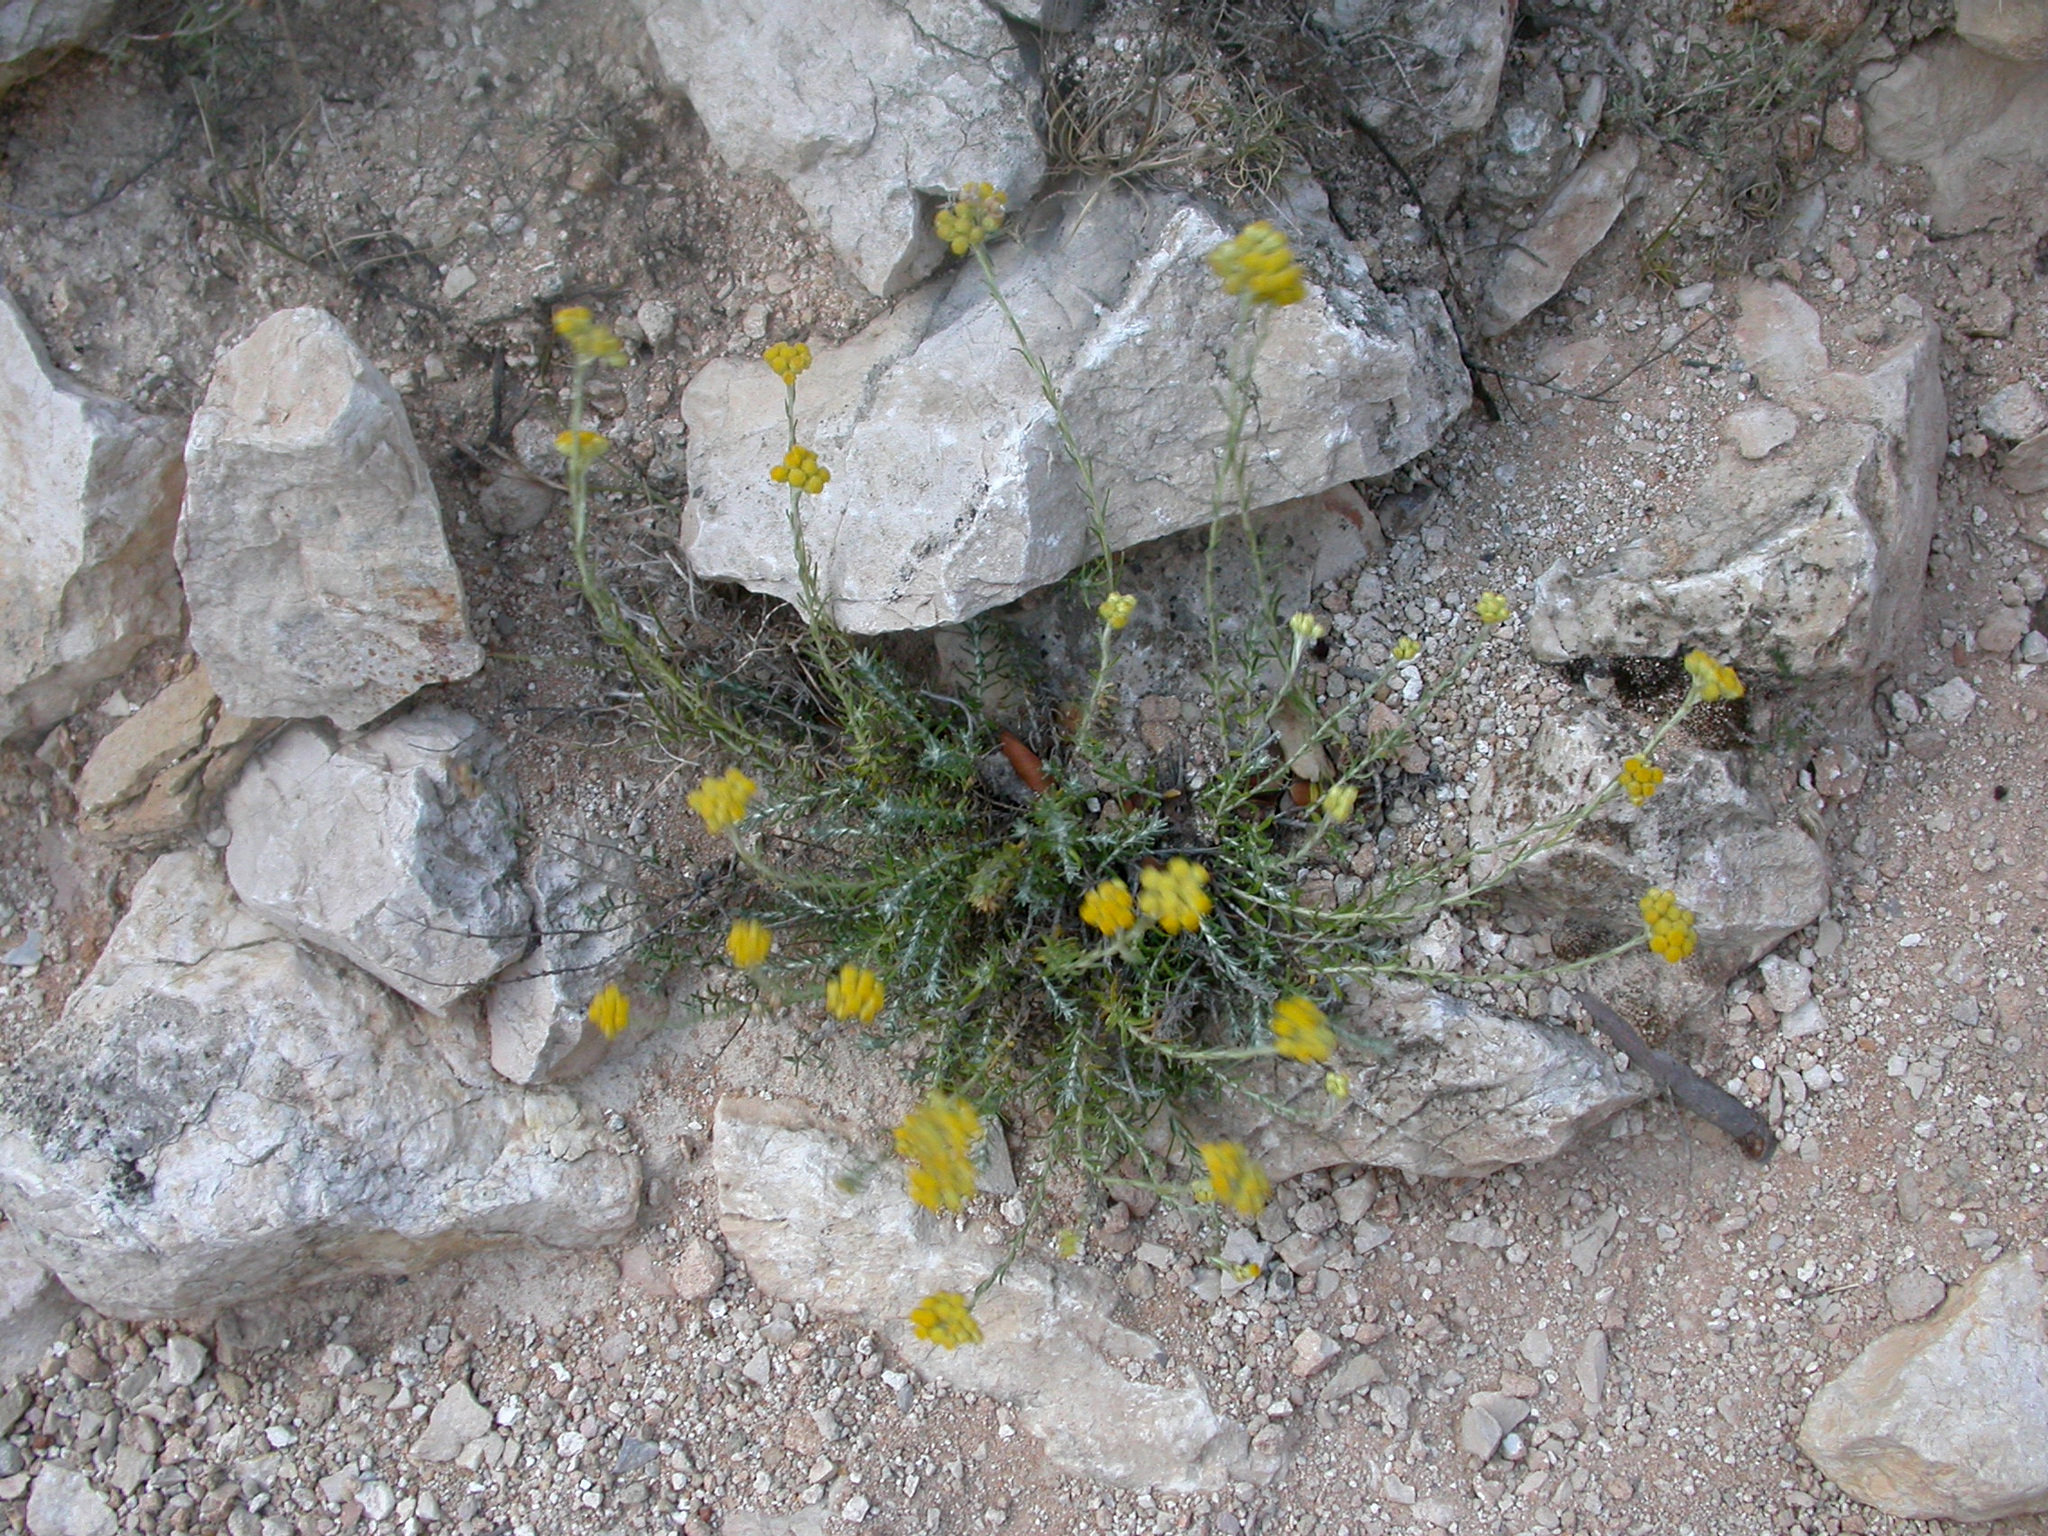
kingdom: Plantae
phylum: Tracheophyta
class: Magnoliopsida
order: Asterales
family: Asteraceae
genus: Helichrysum
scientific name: Helichrysum stoechas
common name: Goldilocks
